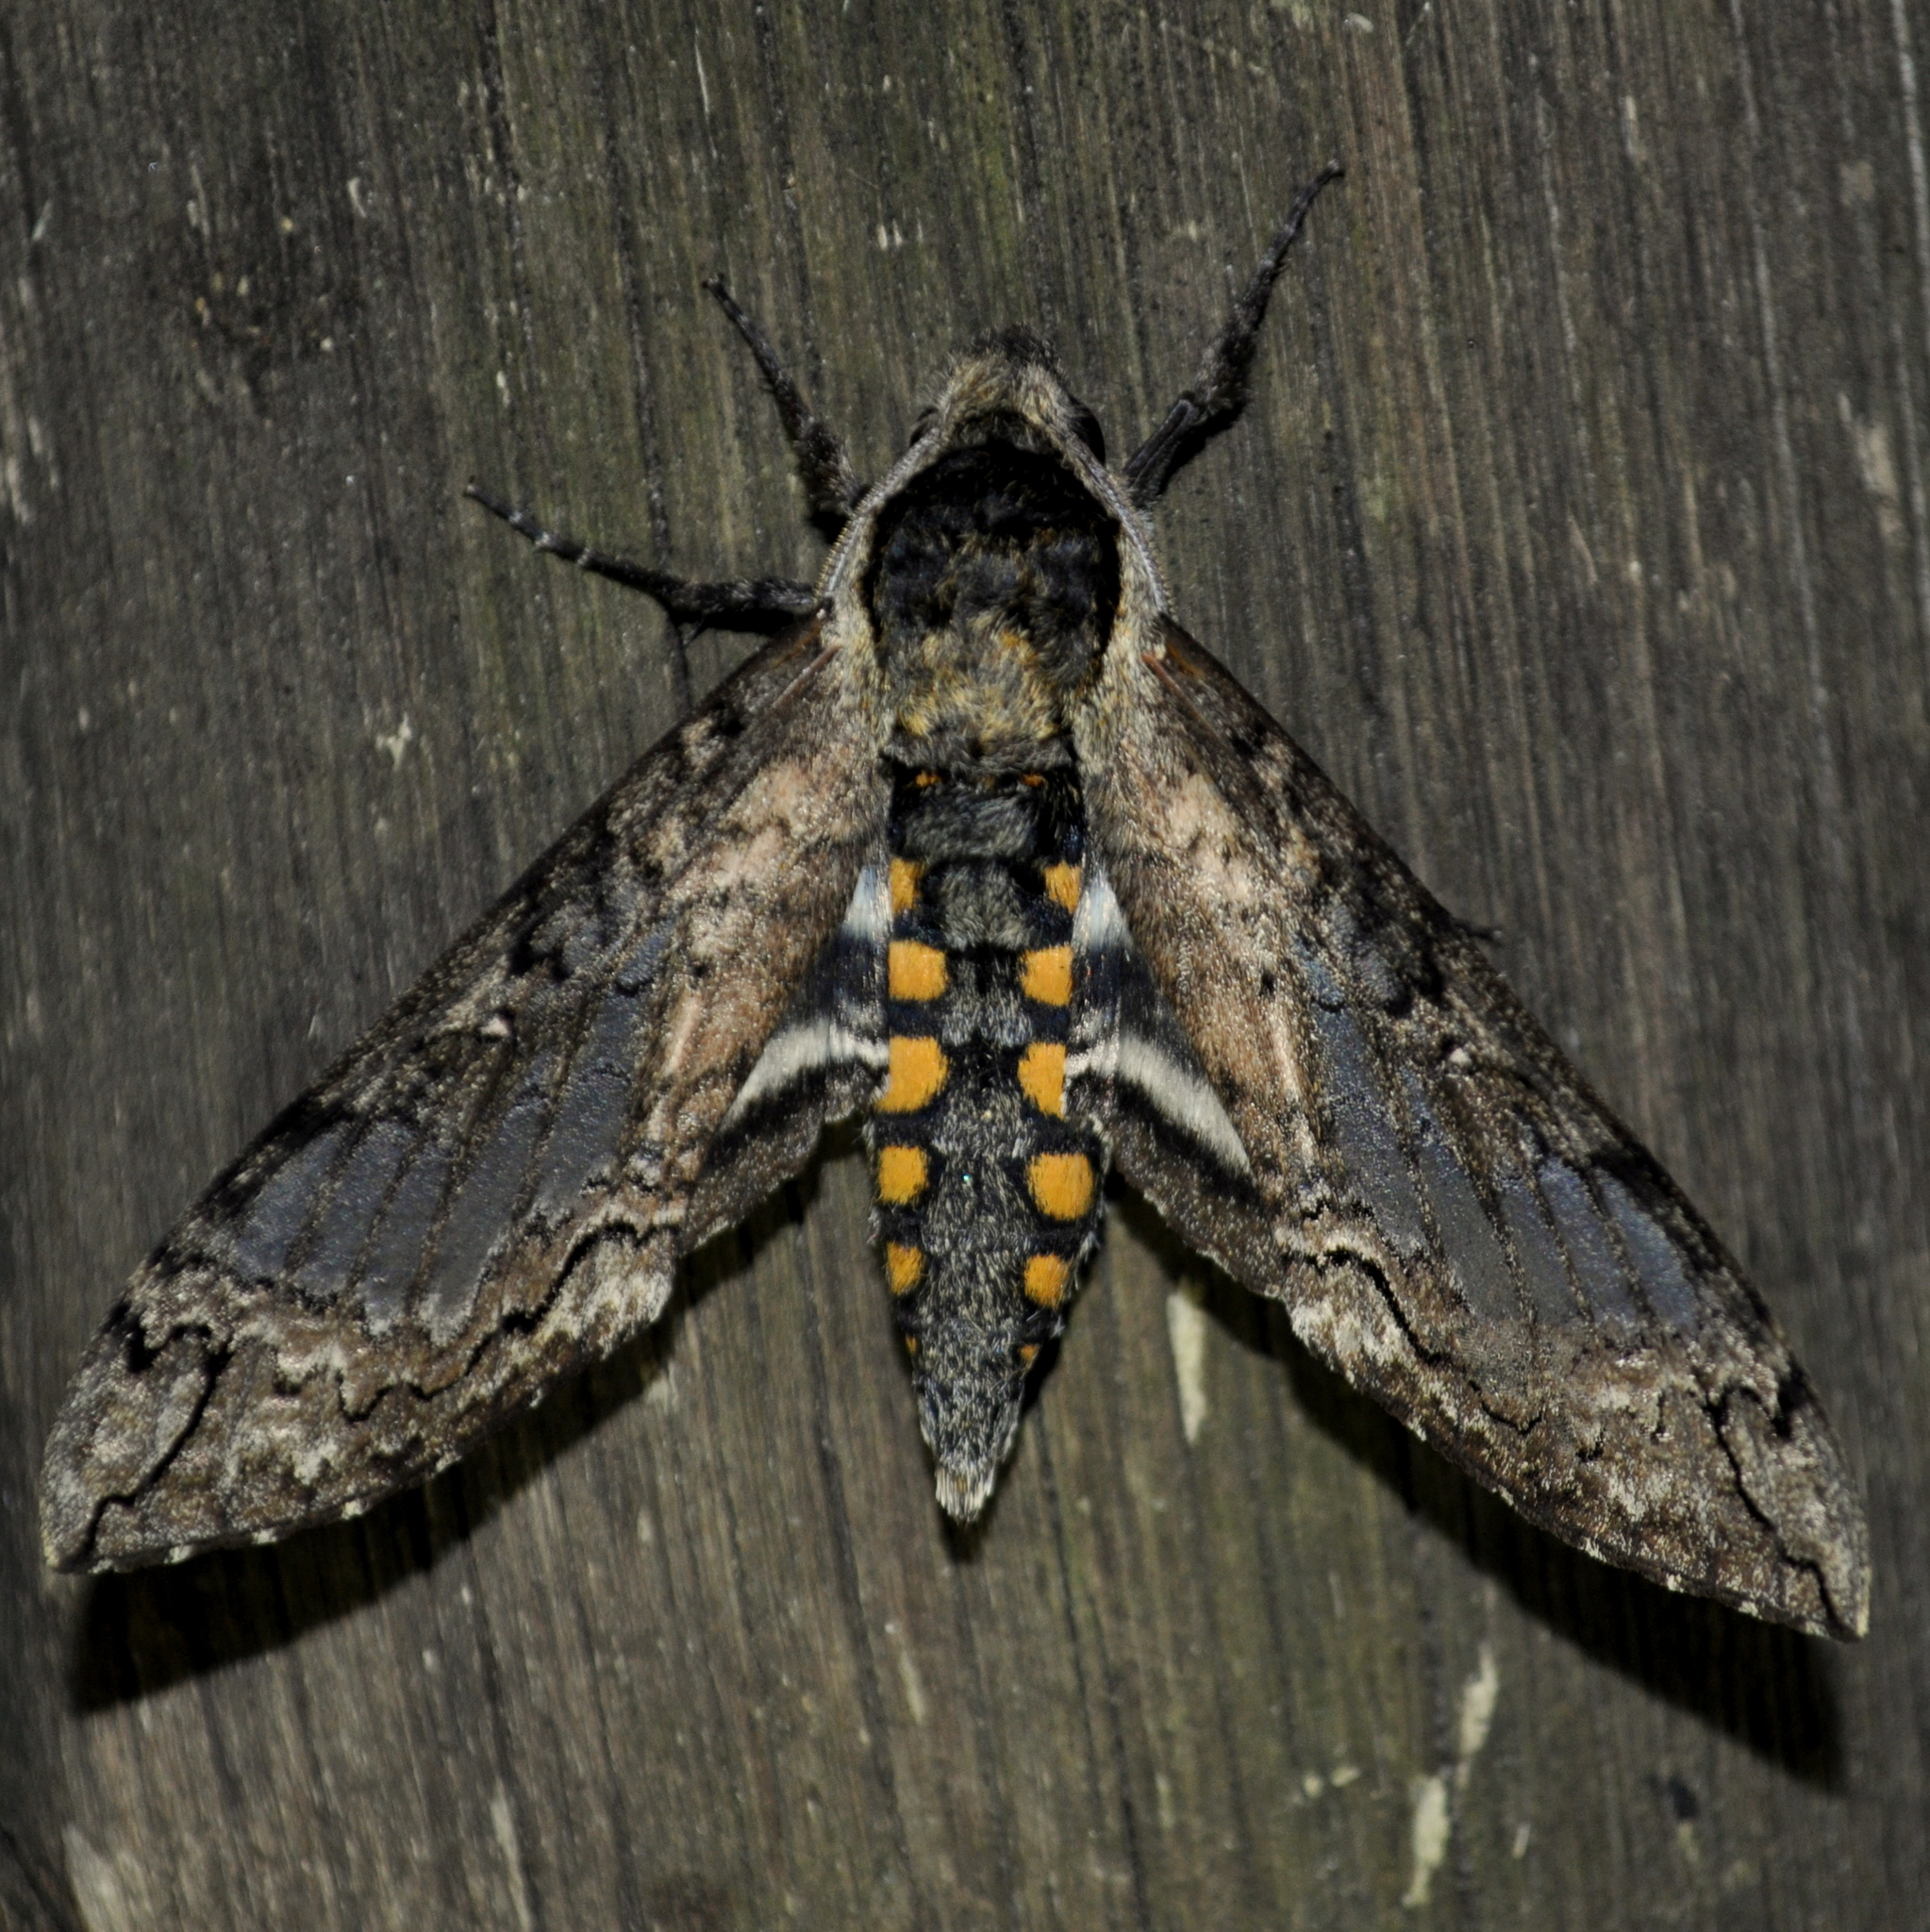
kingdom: Animalia
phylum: Arthropoda
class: Insecta
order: Lepidoptera
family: Sphingidae
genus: Manduca
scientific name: Manduca brasiliensis
